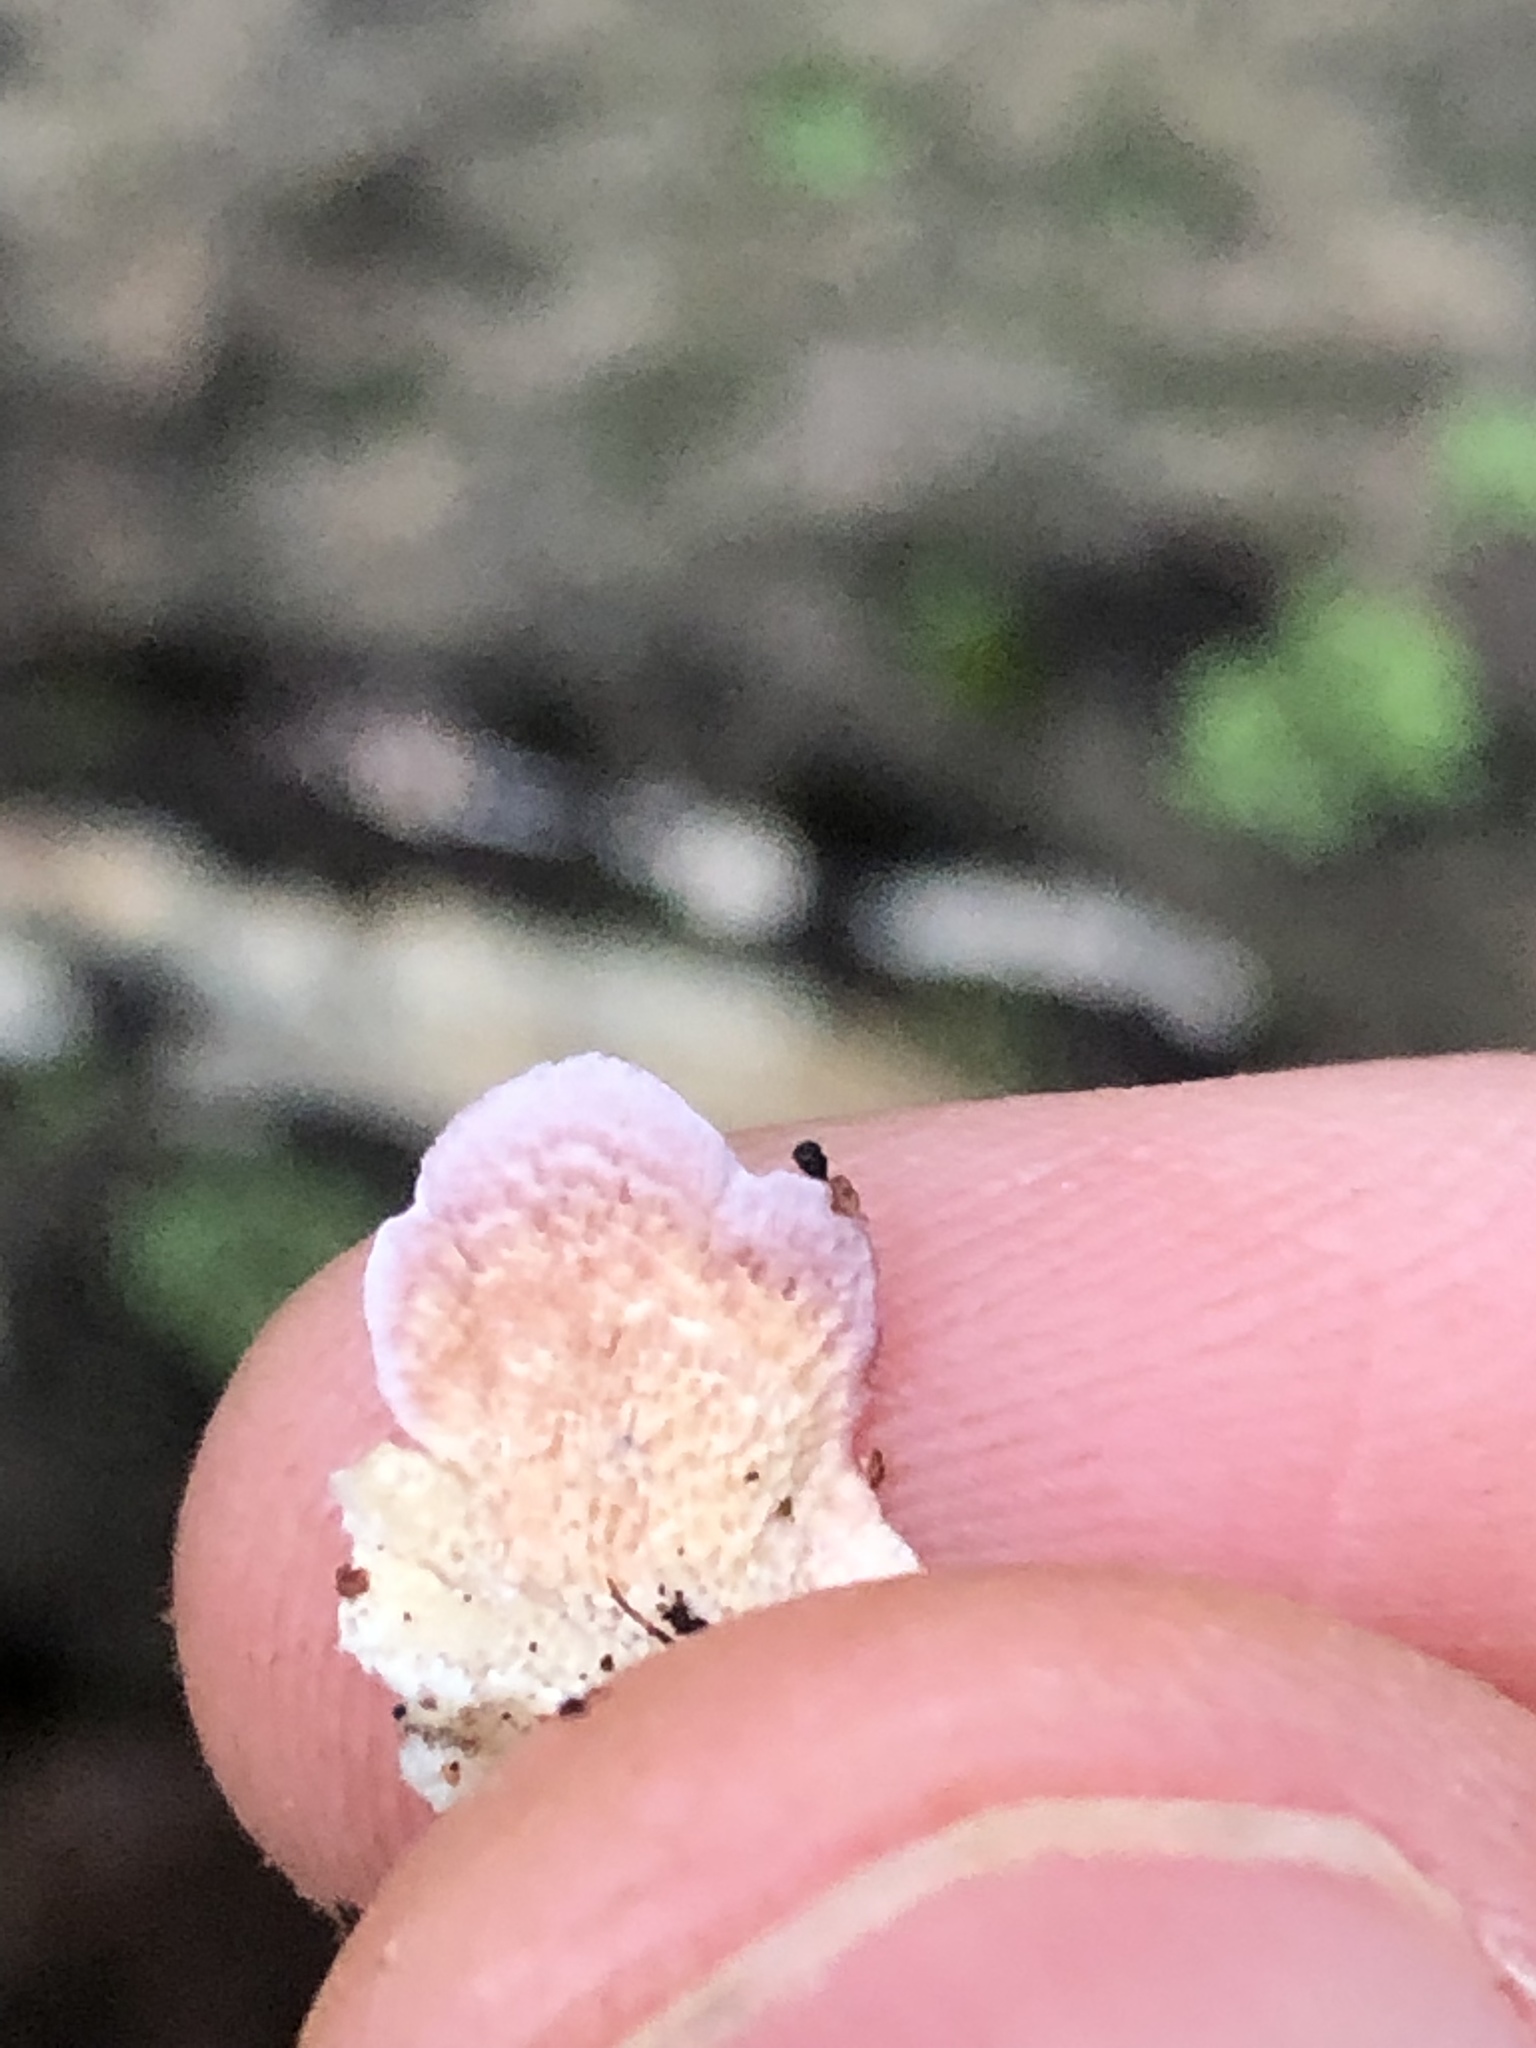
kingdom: Fungi
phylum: Basidiomycota
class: Agaricomycetes
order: Hymenochaetales
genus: Trichaptum
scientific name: Trichaptum biforme
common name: Violet-toothed polypore
